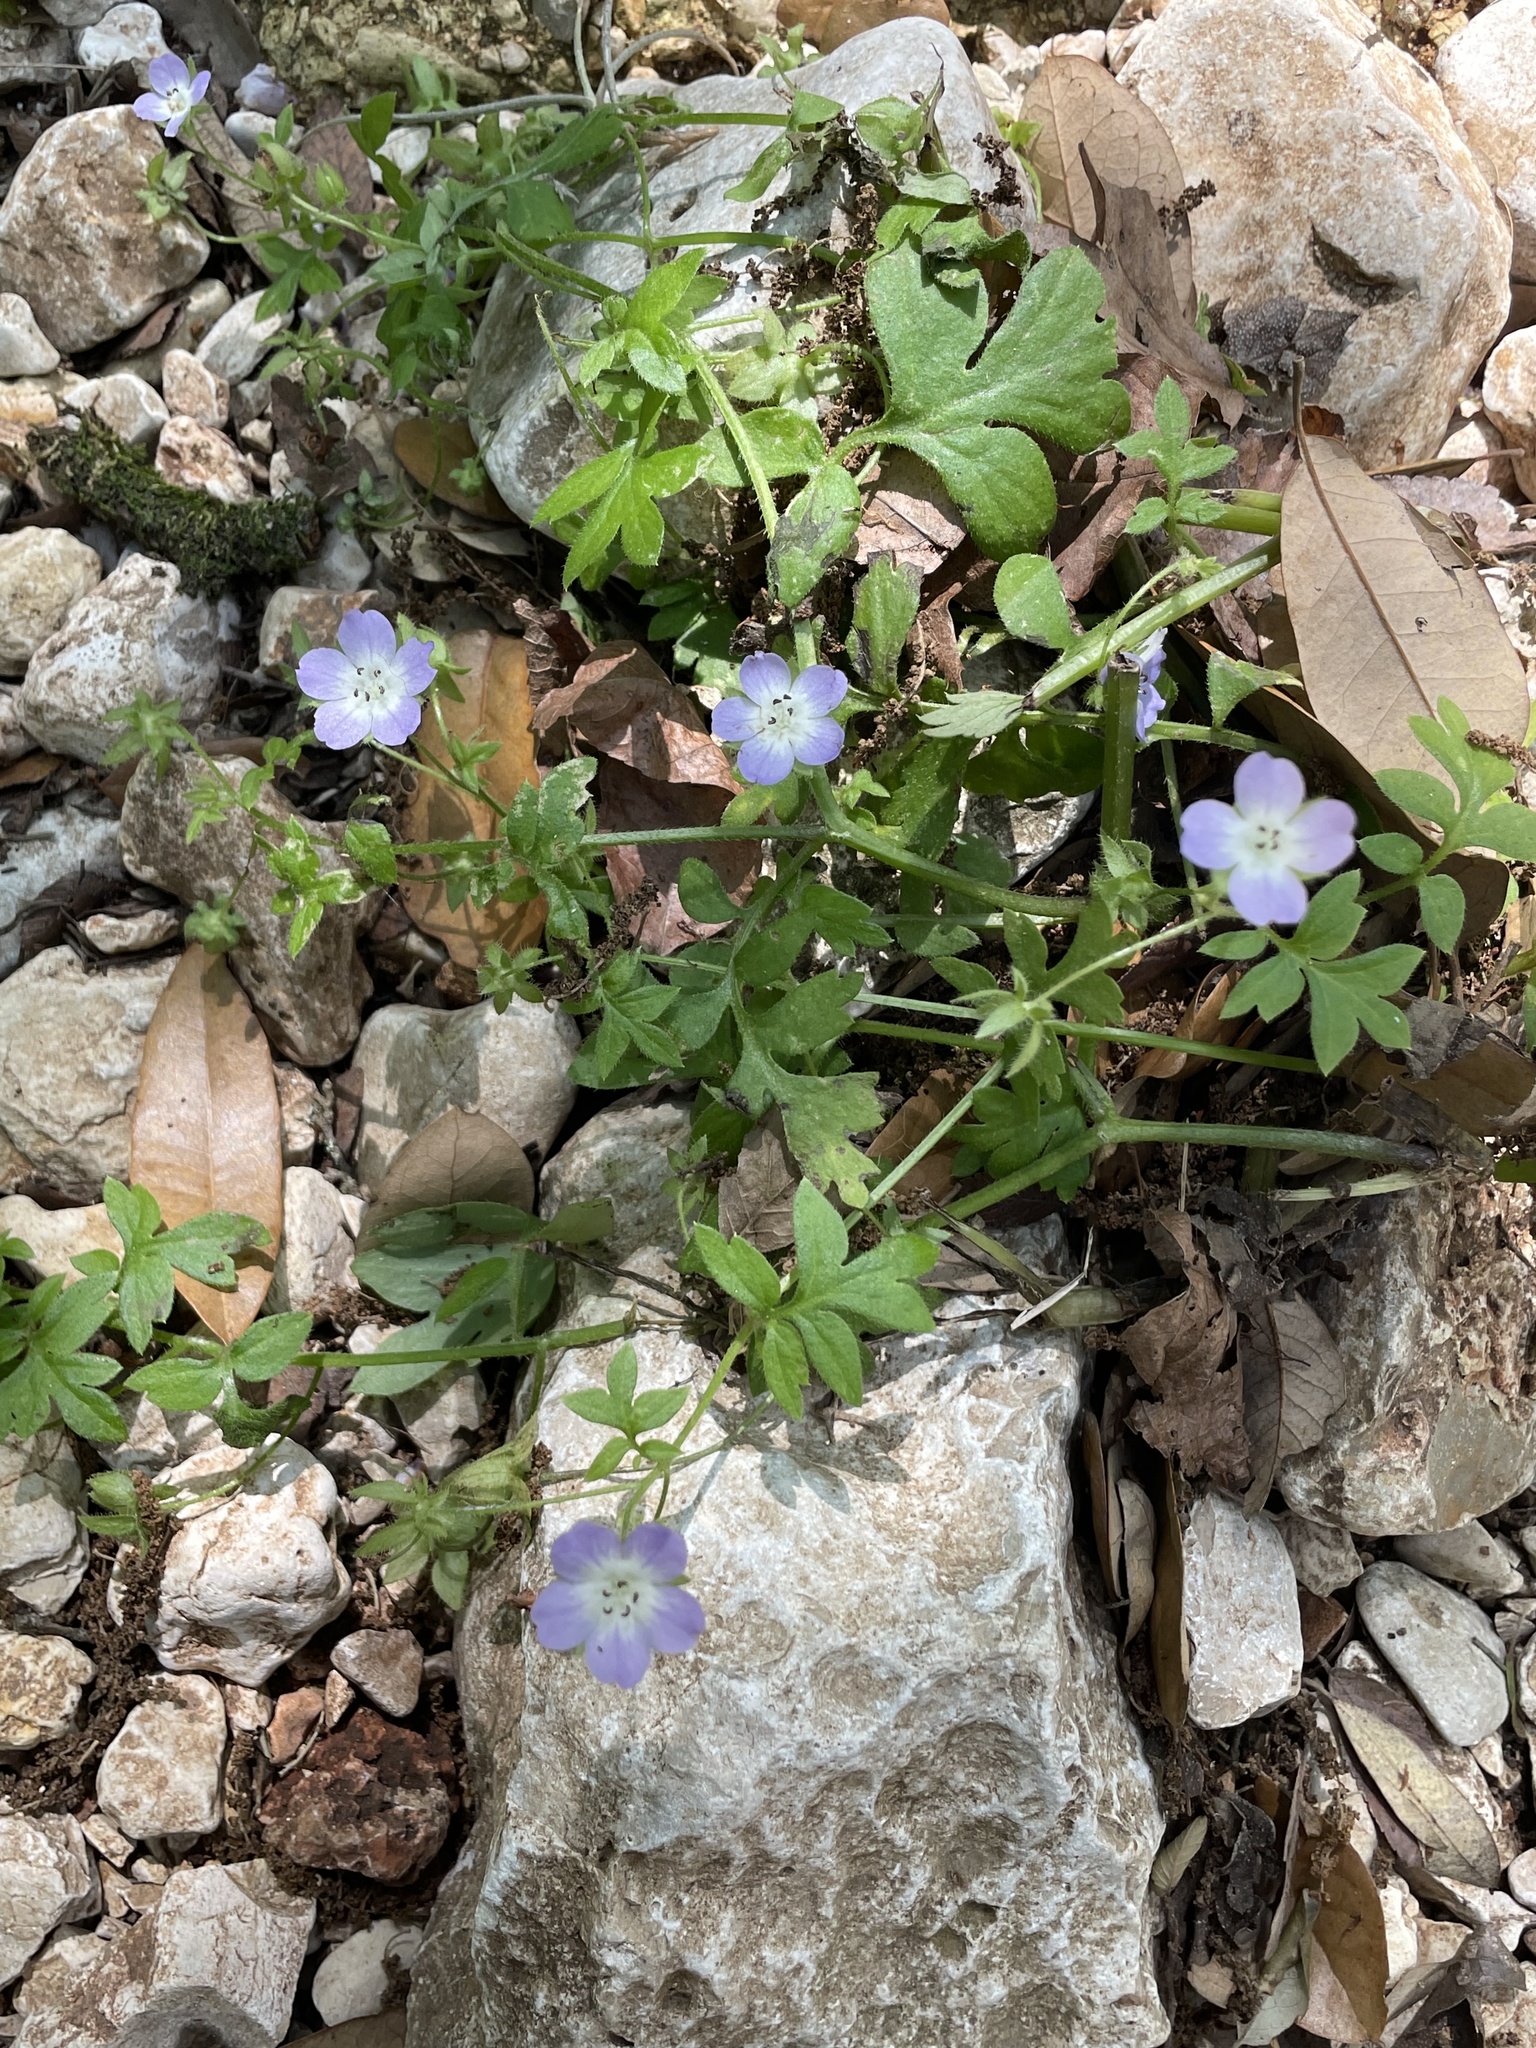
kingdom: Plantae
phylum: Tracheophyta
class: Magnoliopsida
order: Boraginales
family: Hydrophyllaceae
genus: Nemophila
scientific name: Nemophila phacelioides
